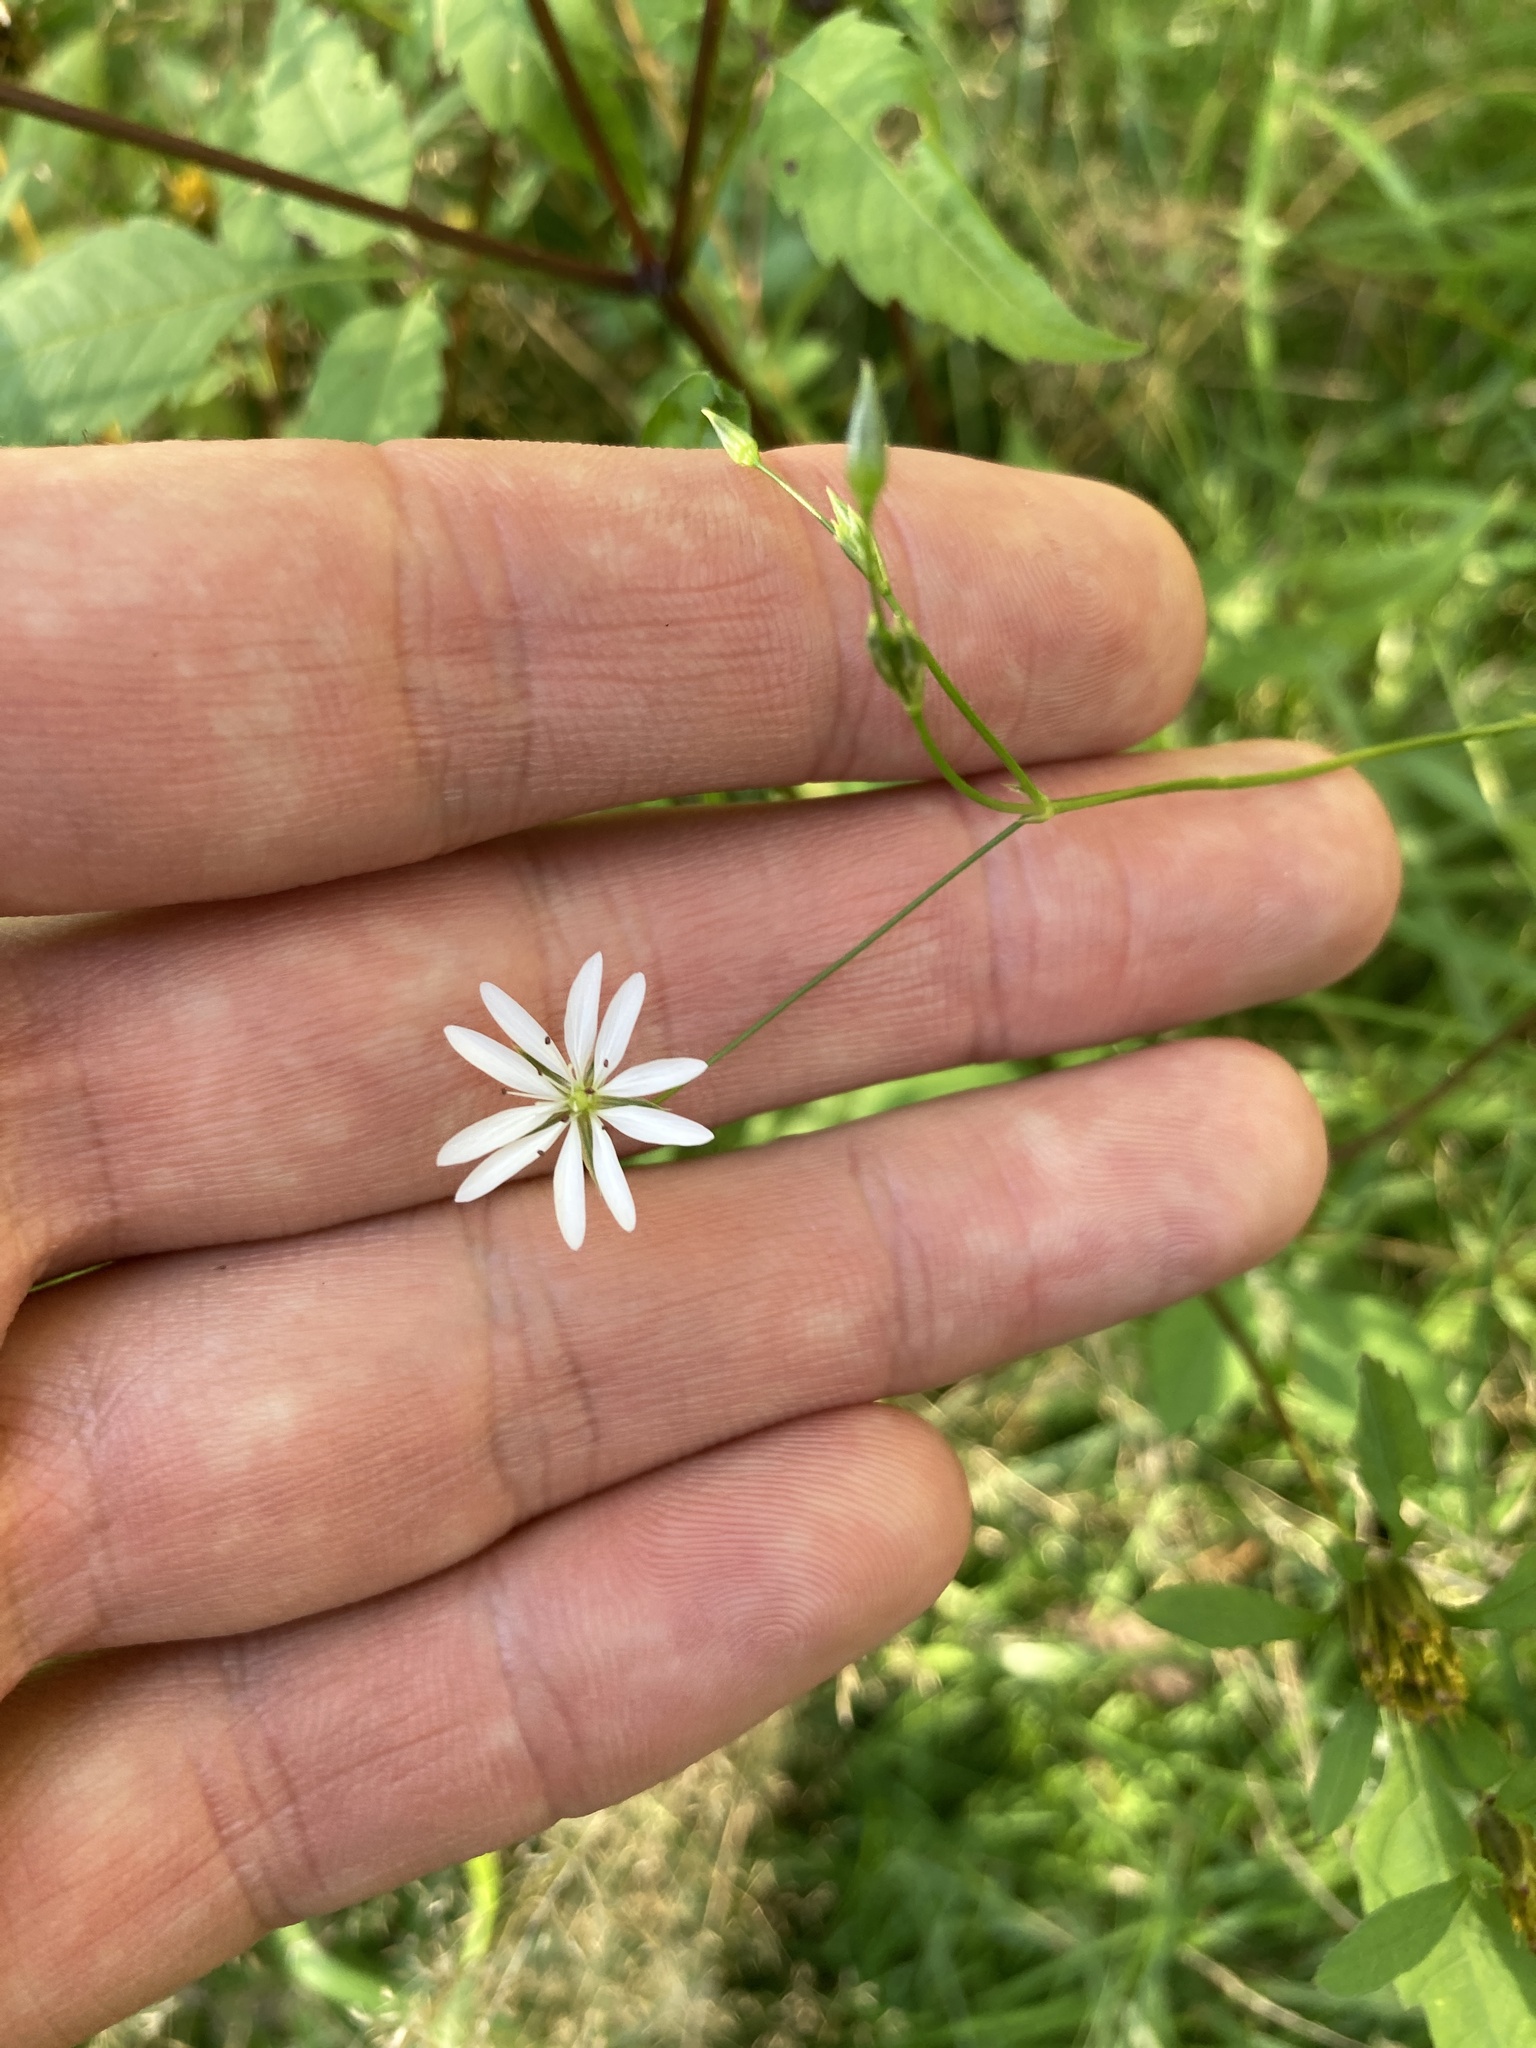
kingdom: Plantae
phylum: Tracheophyta
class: Magnoliopsida
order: Caryophyllales
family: Caryophyllaceae
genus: Stellaria
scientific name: Stellaria graminea
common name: Grass-like starwort
